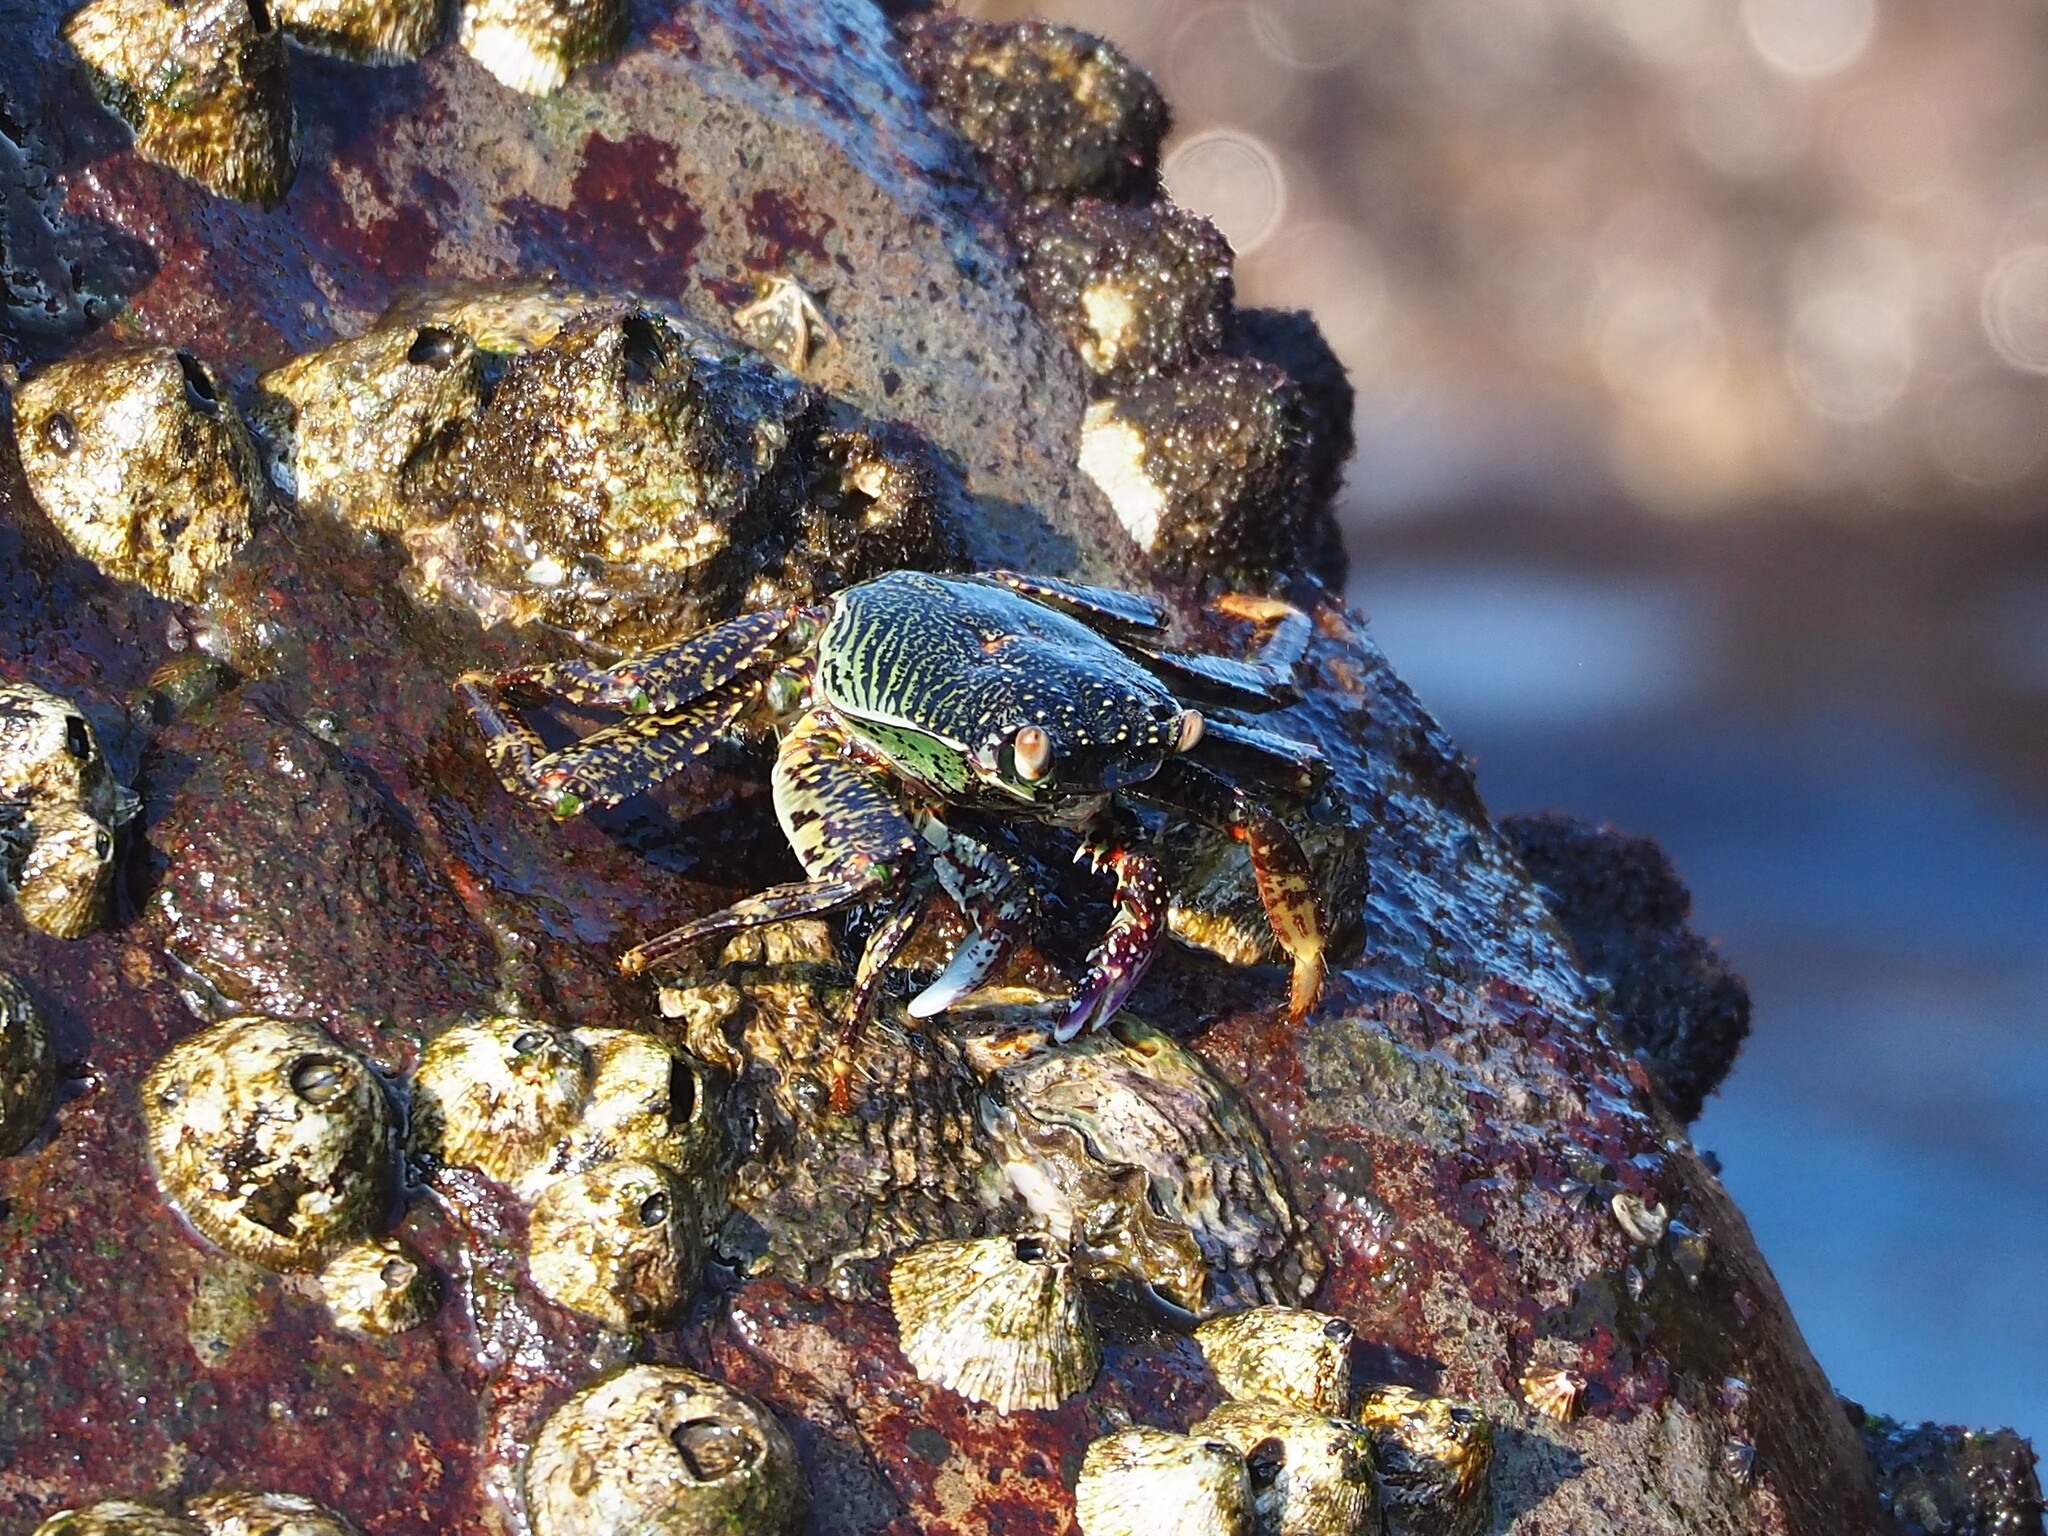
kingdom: Animalia
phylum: Arthropoda
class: Malacostraca
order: Decapoda
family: Grapsidae
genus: Grapsus
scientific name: Grapsus albolineatus
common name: Mottled lightfoot crab
